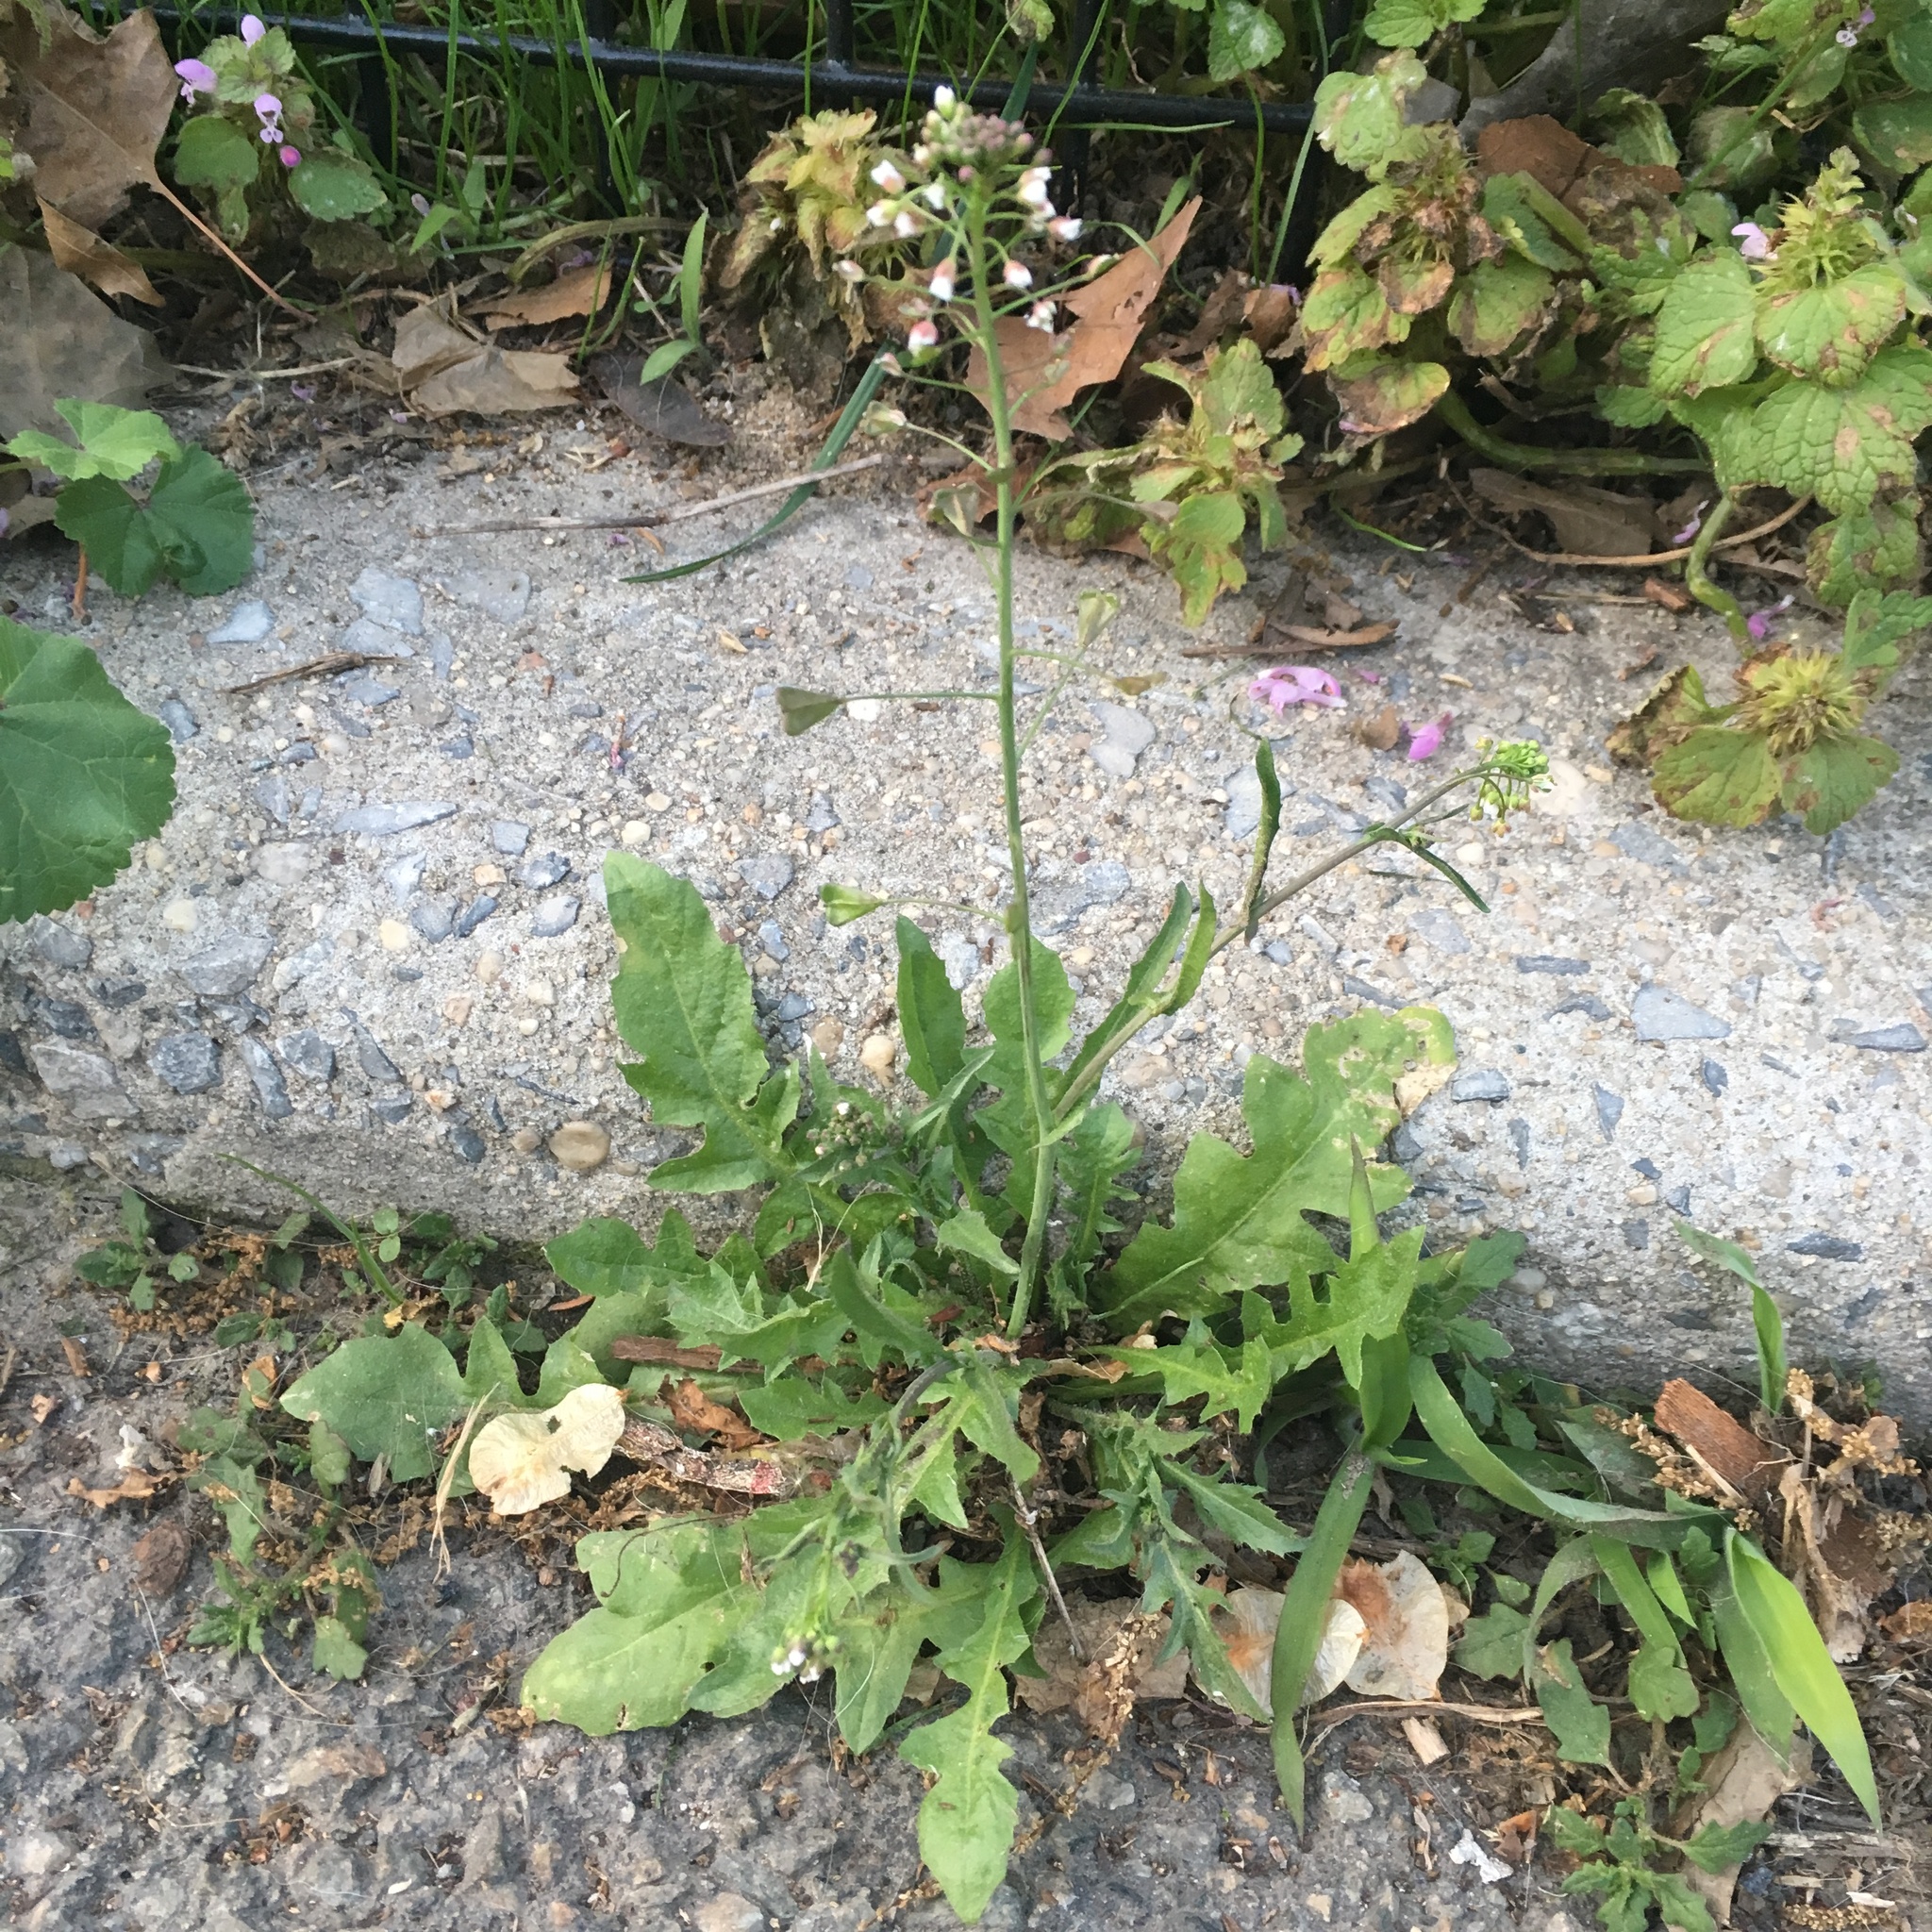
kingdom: Plantae
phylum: Tracheophyta
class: Magnoliopsida
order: Brassicales
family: Brassicaceae
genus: Capsella
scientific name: Capsella bursa-pastoris
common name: Shepherd's purse
